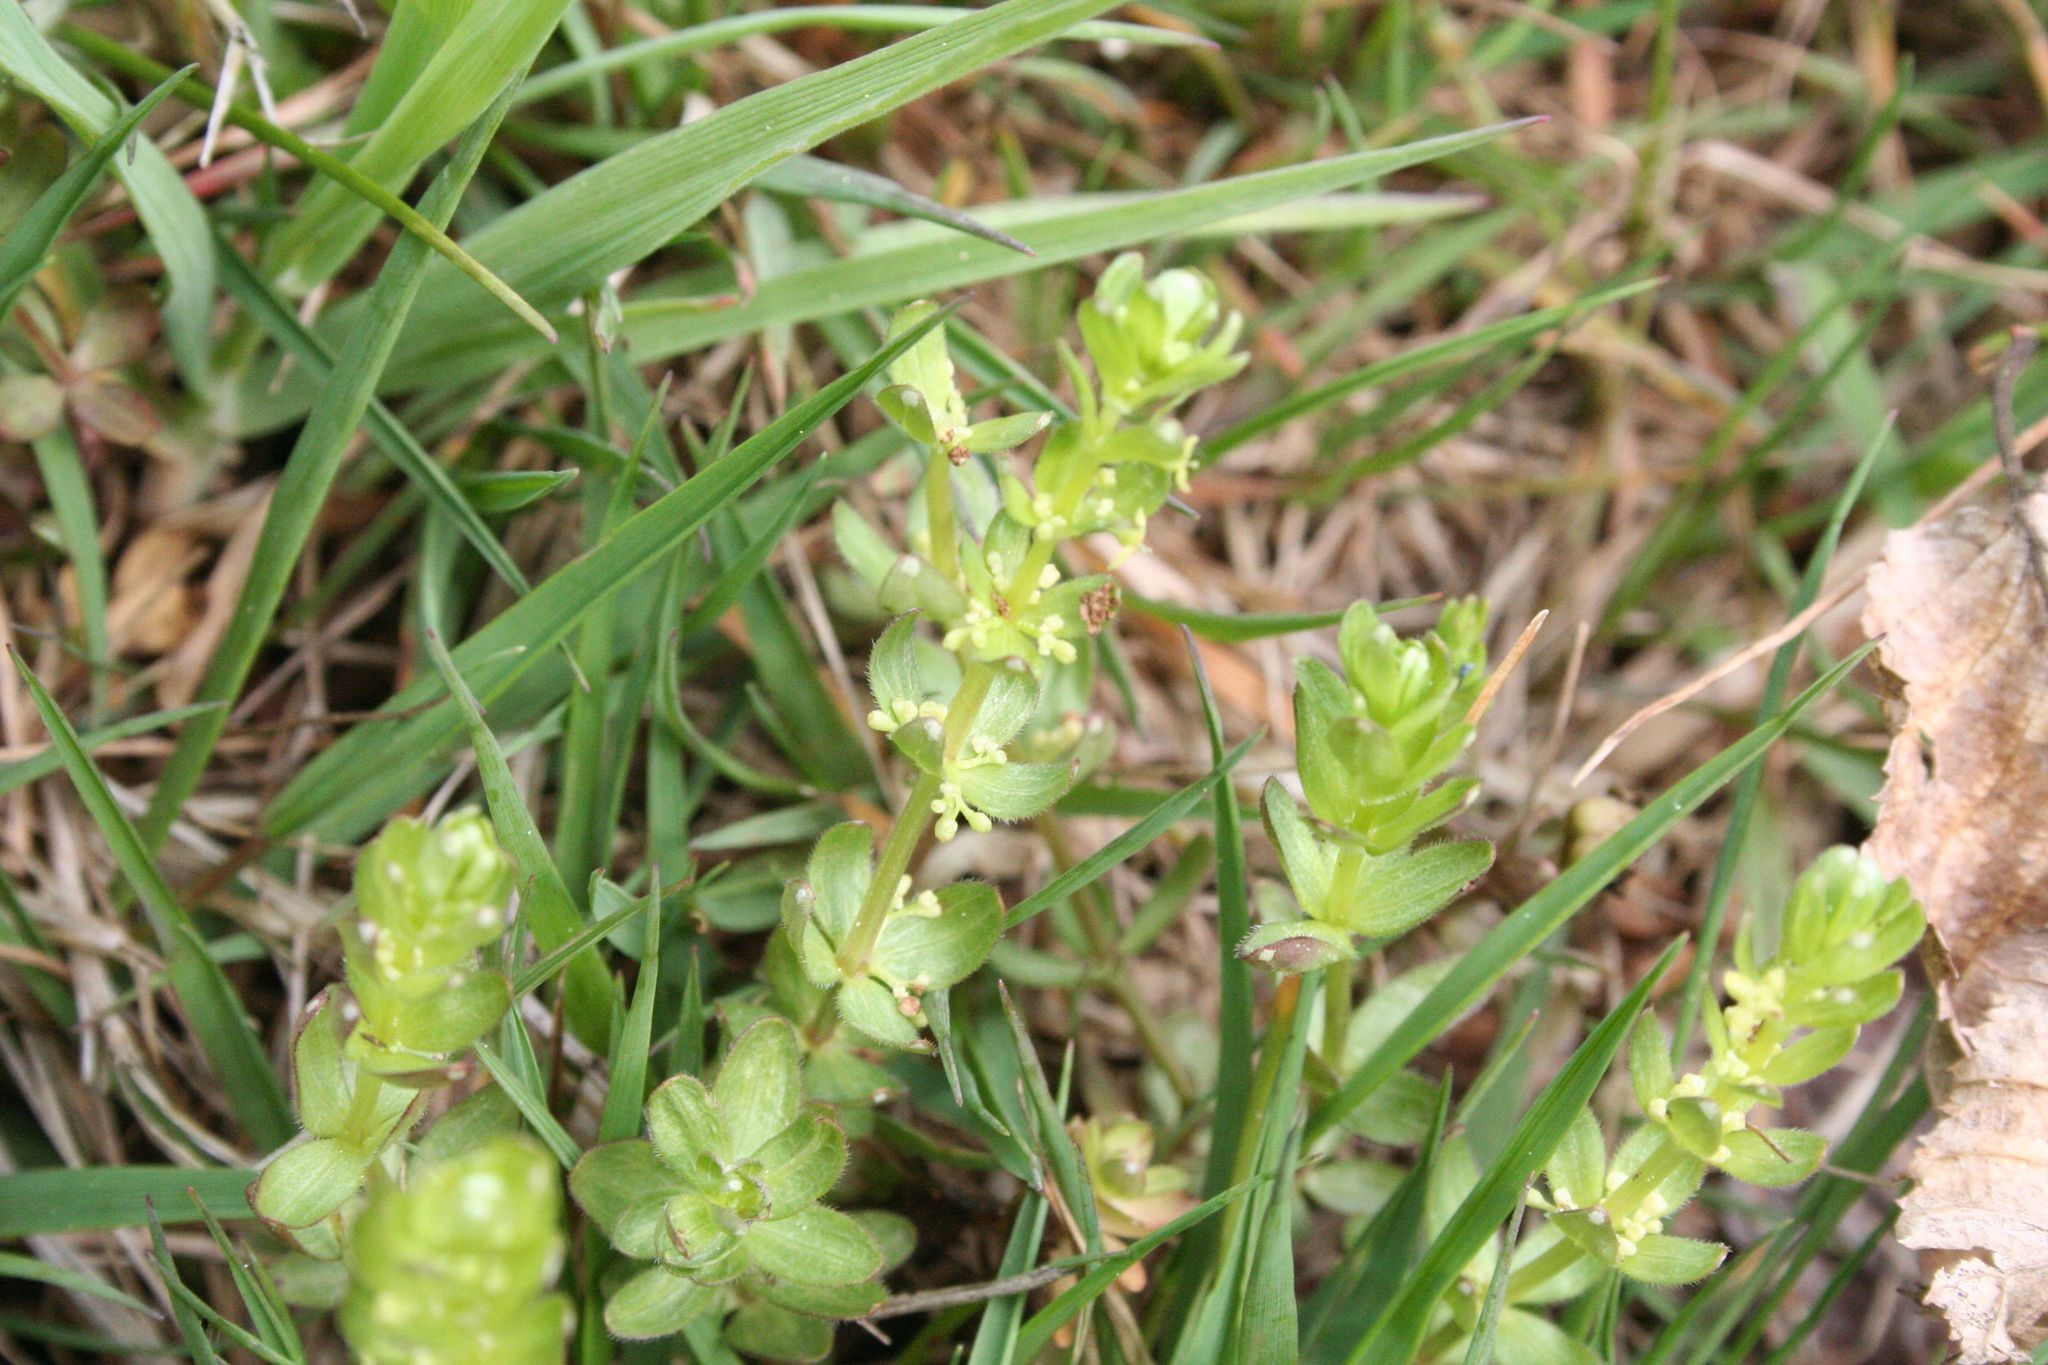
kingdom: Plantae
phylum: Tracheophyta
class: Magnoliopsida
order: Gentianales
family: Rubiaceae
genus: Cruciata
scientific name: Cruciata glabra
